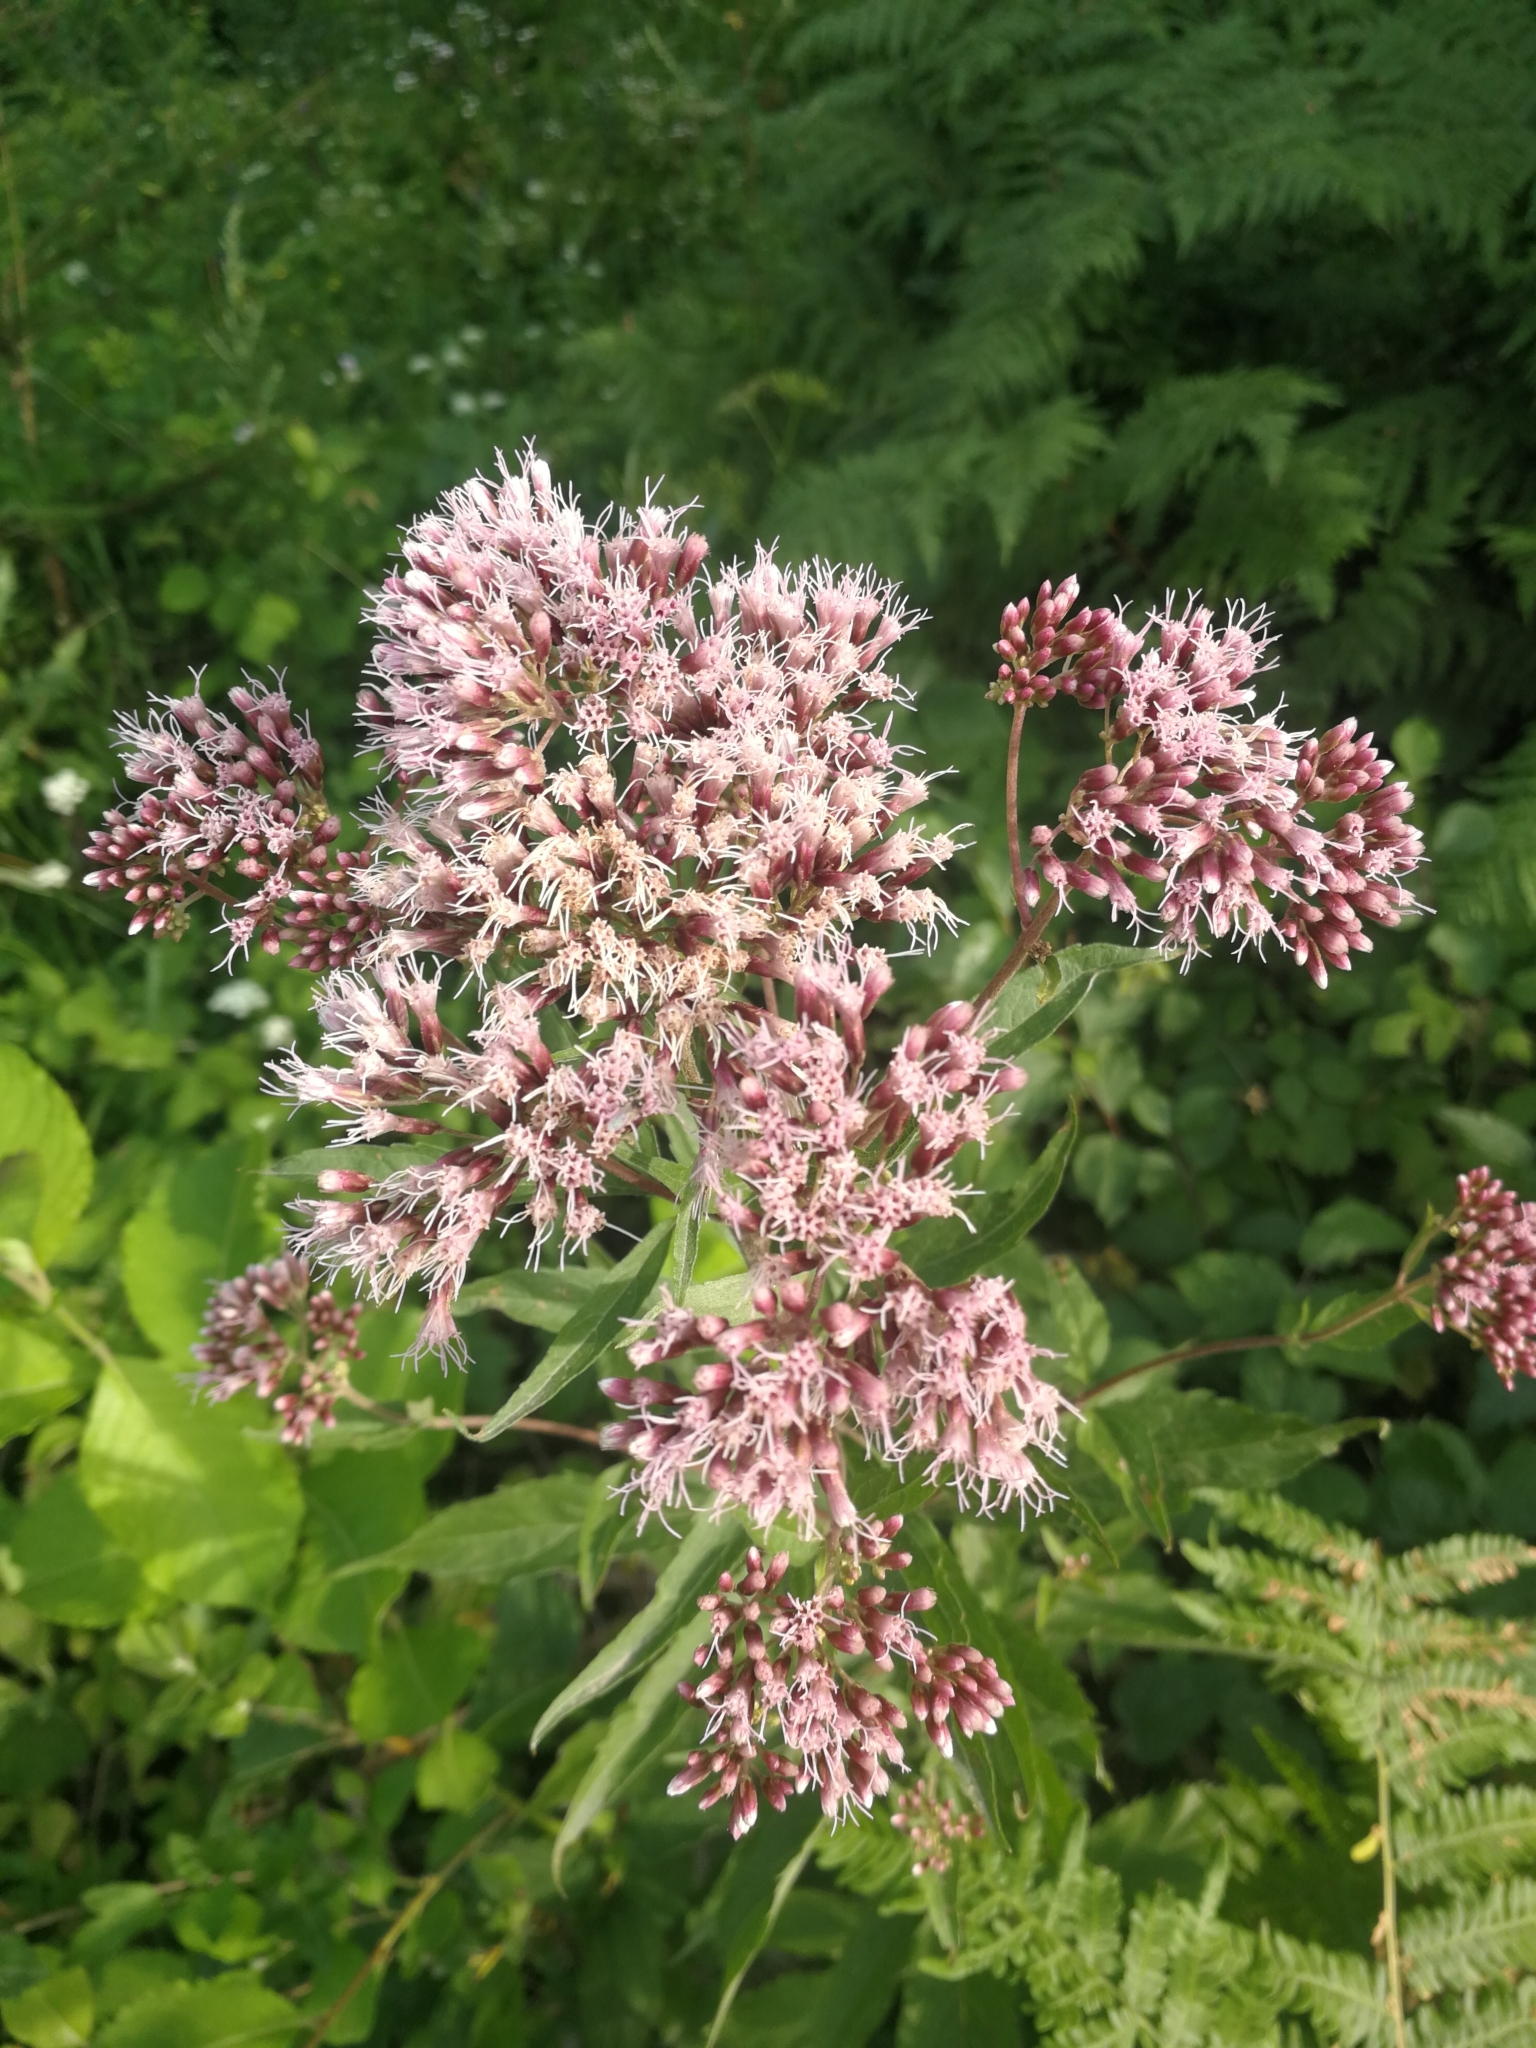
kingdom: Plantae
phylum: Tracheophyta
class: Magnoliopsida
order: Asterales
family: Asteraceae
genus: Eupatorium
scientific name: Eupatorium cannabinum
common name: Hemp-agrimony
